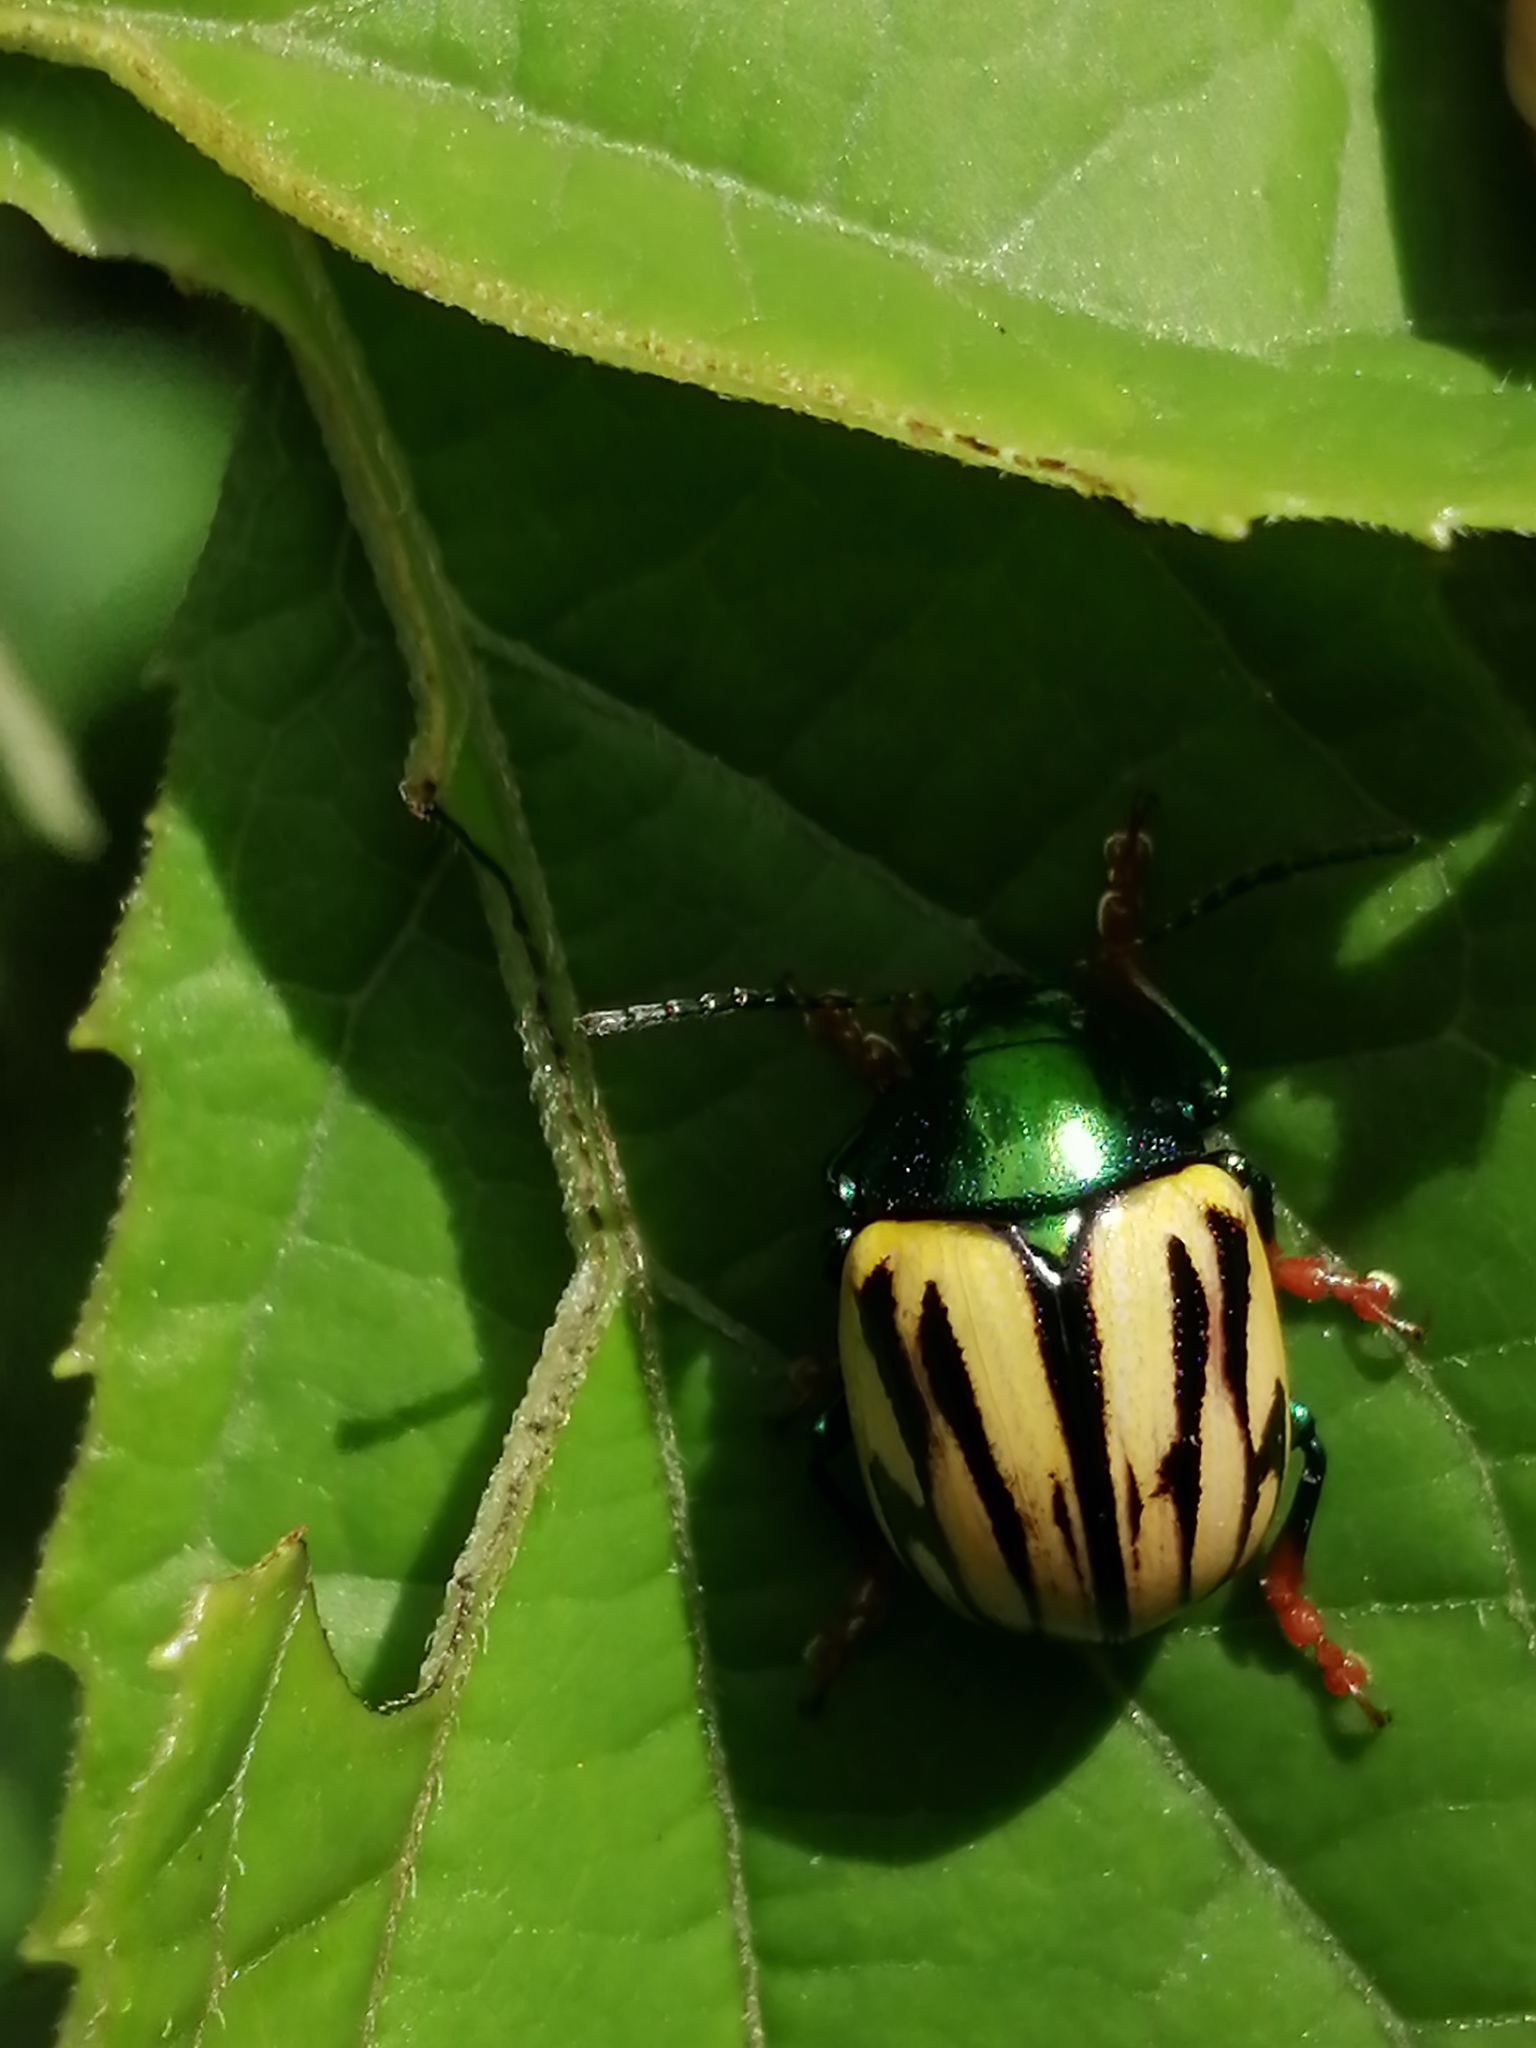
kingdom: Animalia
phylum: Arthropoda
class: Insecta
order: Coleoptera
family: Chrysomelidae
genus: Leptinotarsa
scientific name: Leptinotarsa
